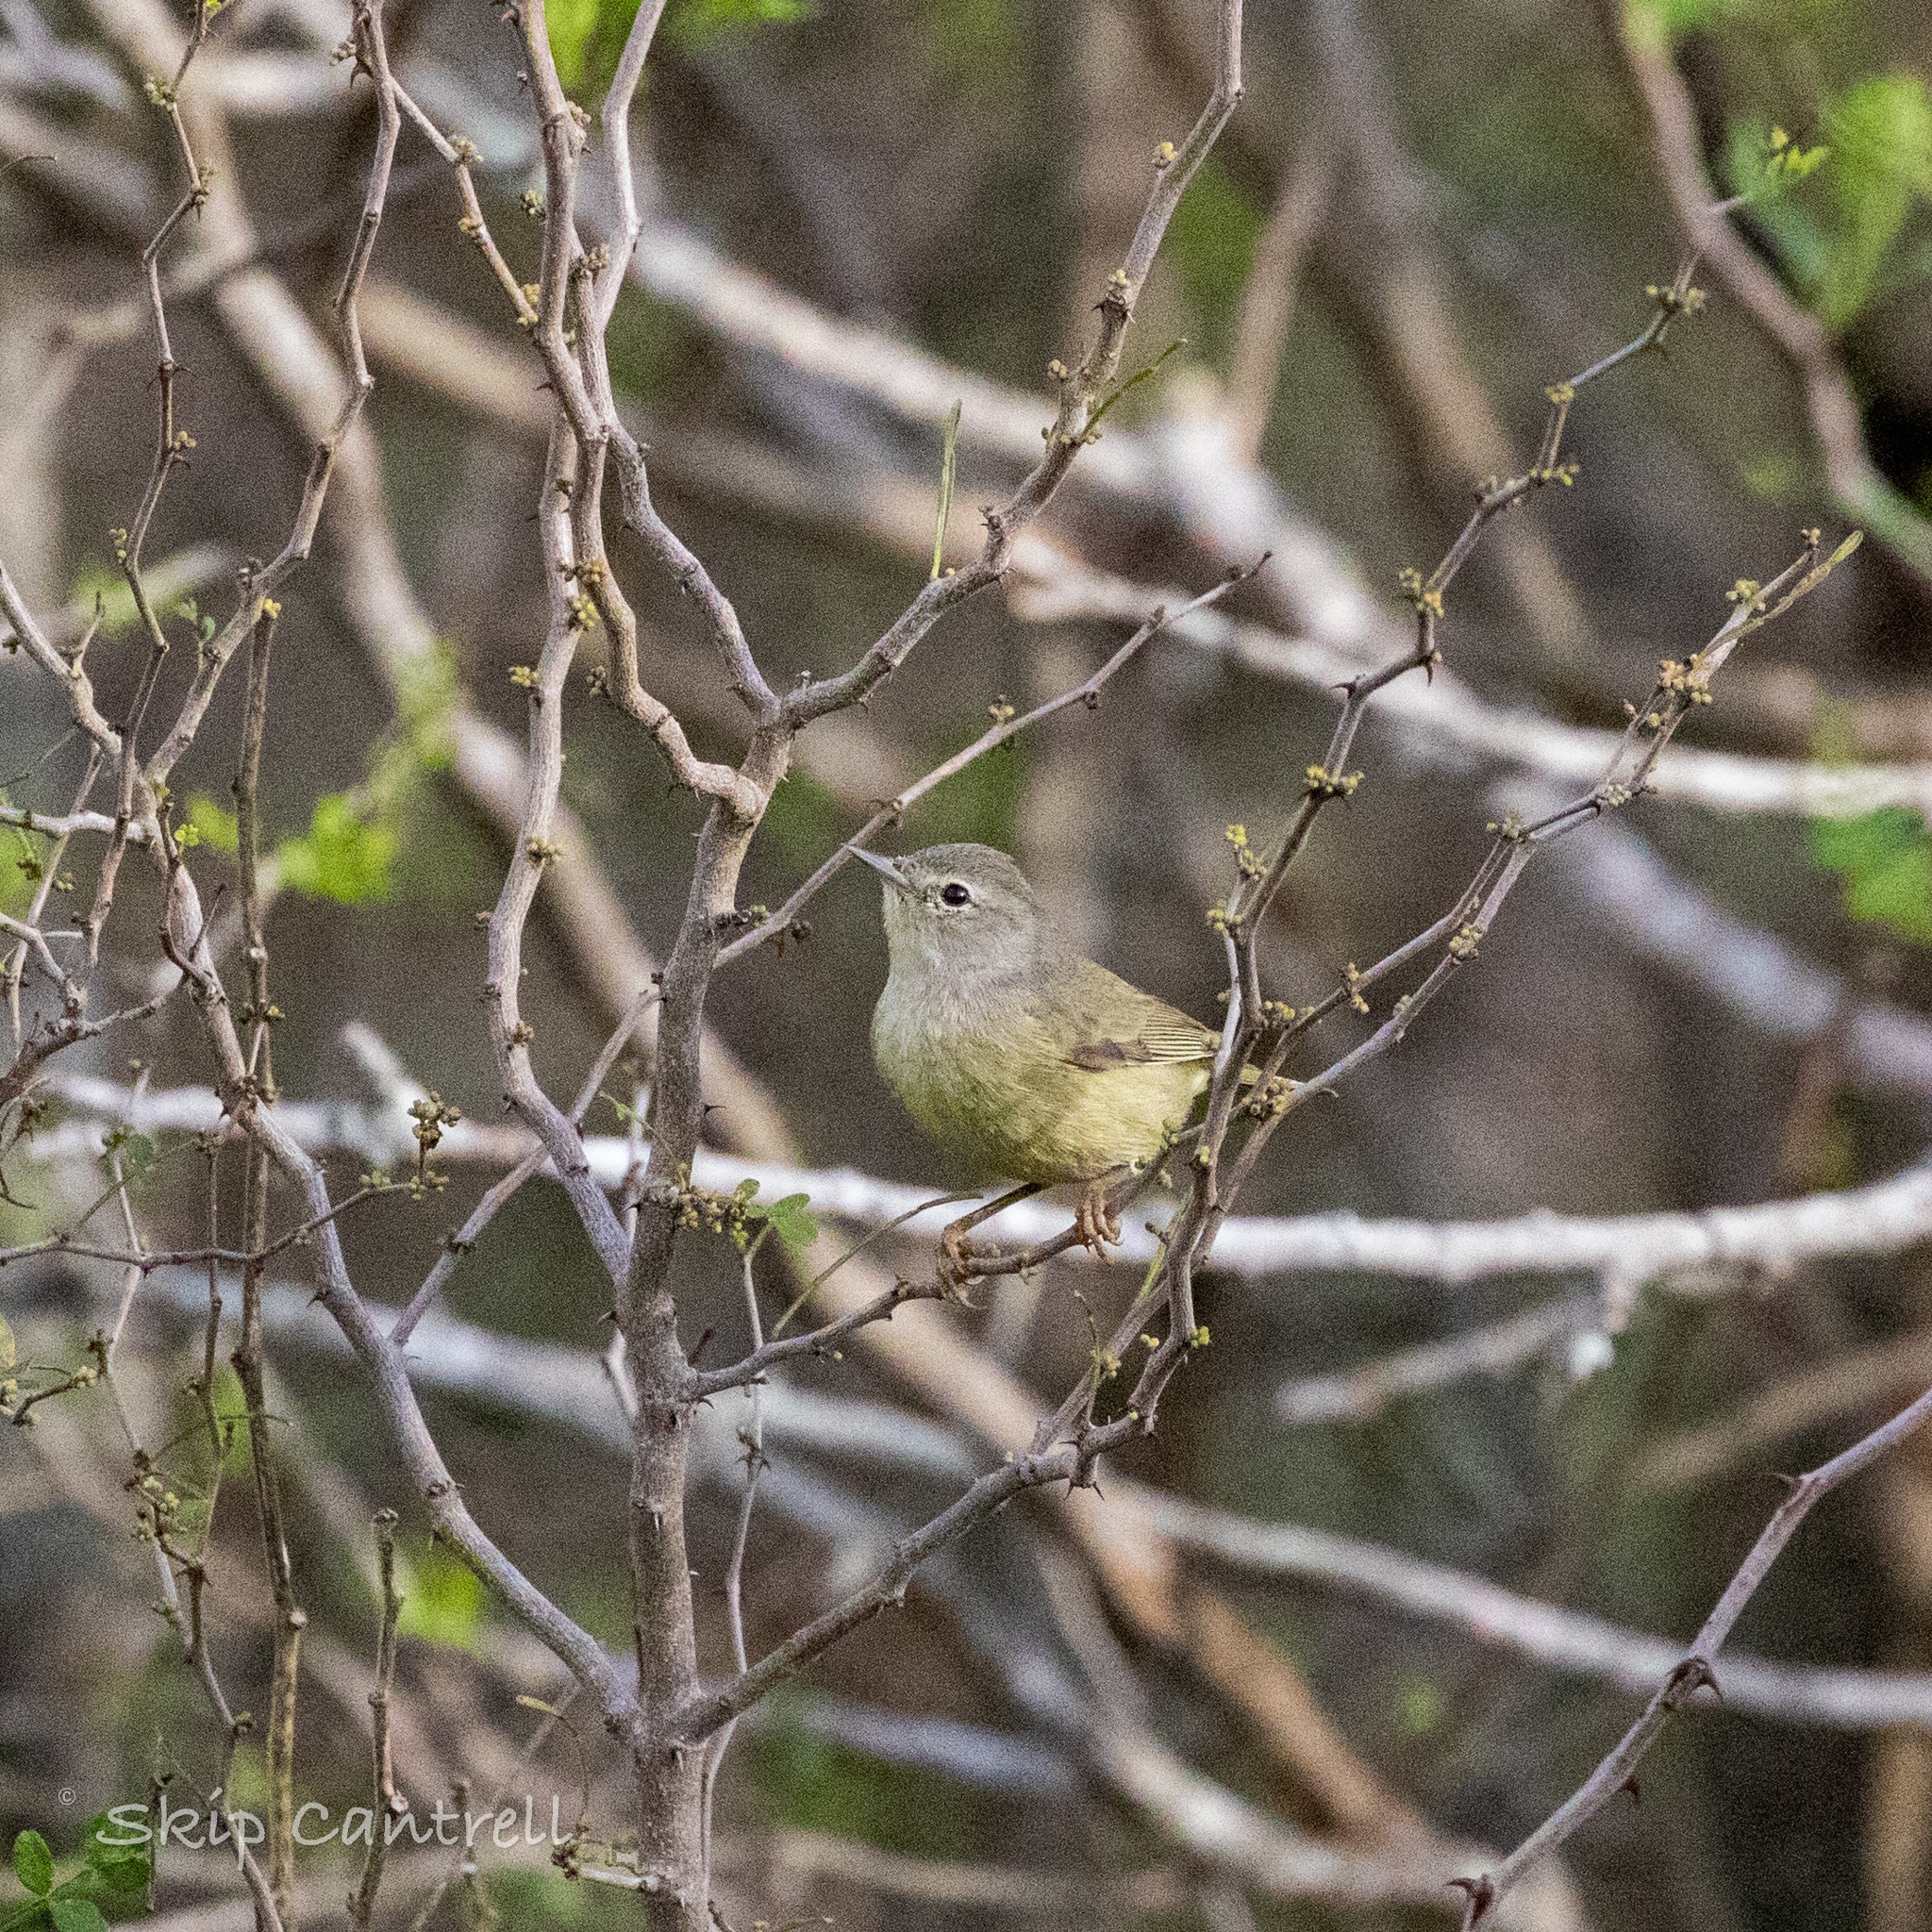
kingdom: Animalia
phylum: Chordata
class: Aves
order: Passeriformes
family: Parulidae
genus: Leiothlypis
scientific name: Leiothlypis celata
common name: Orange-crowned warbler
